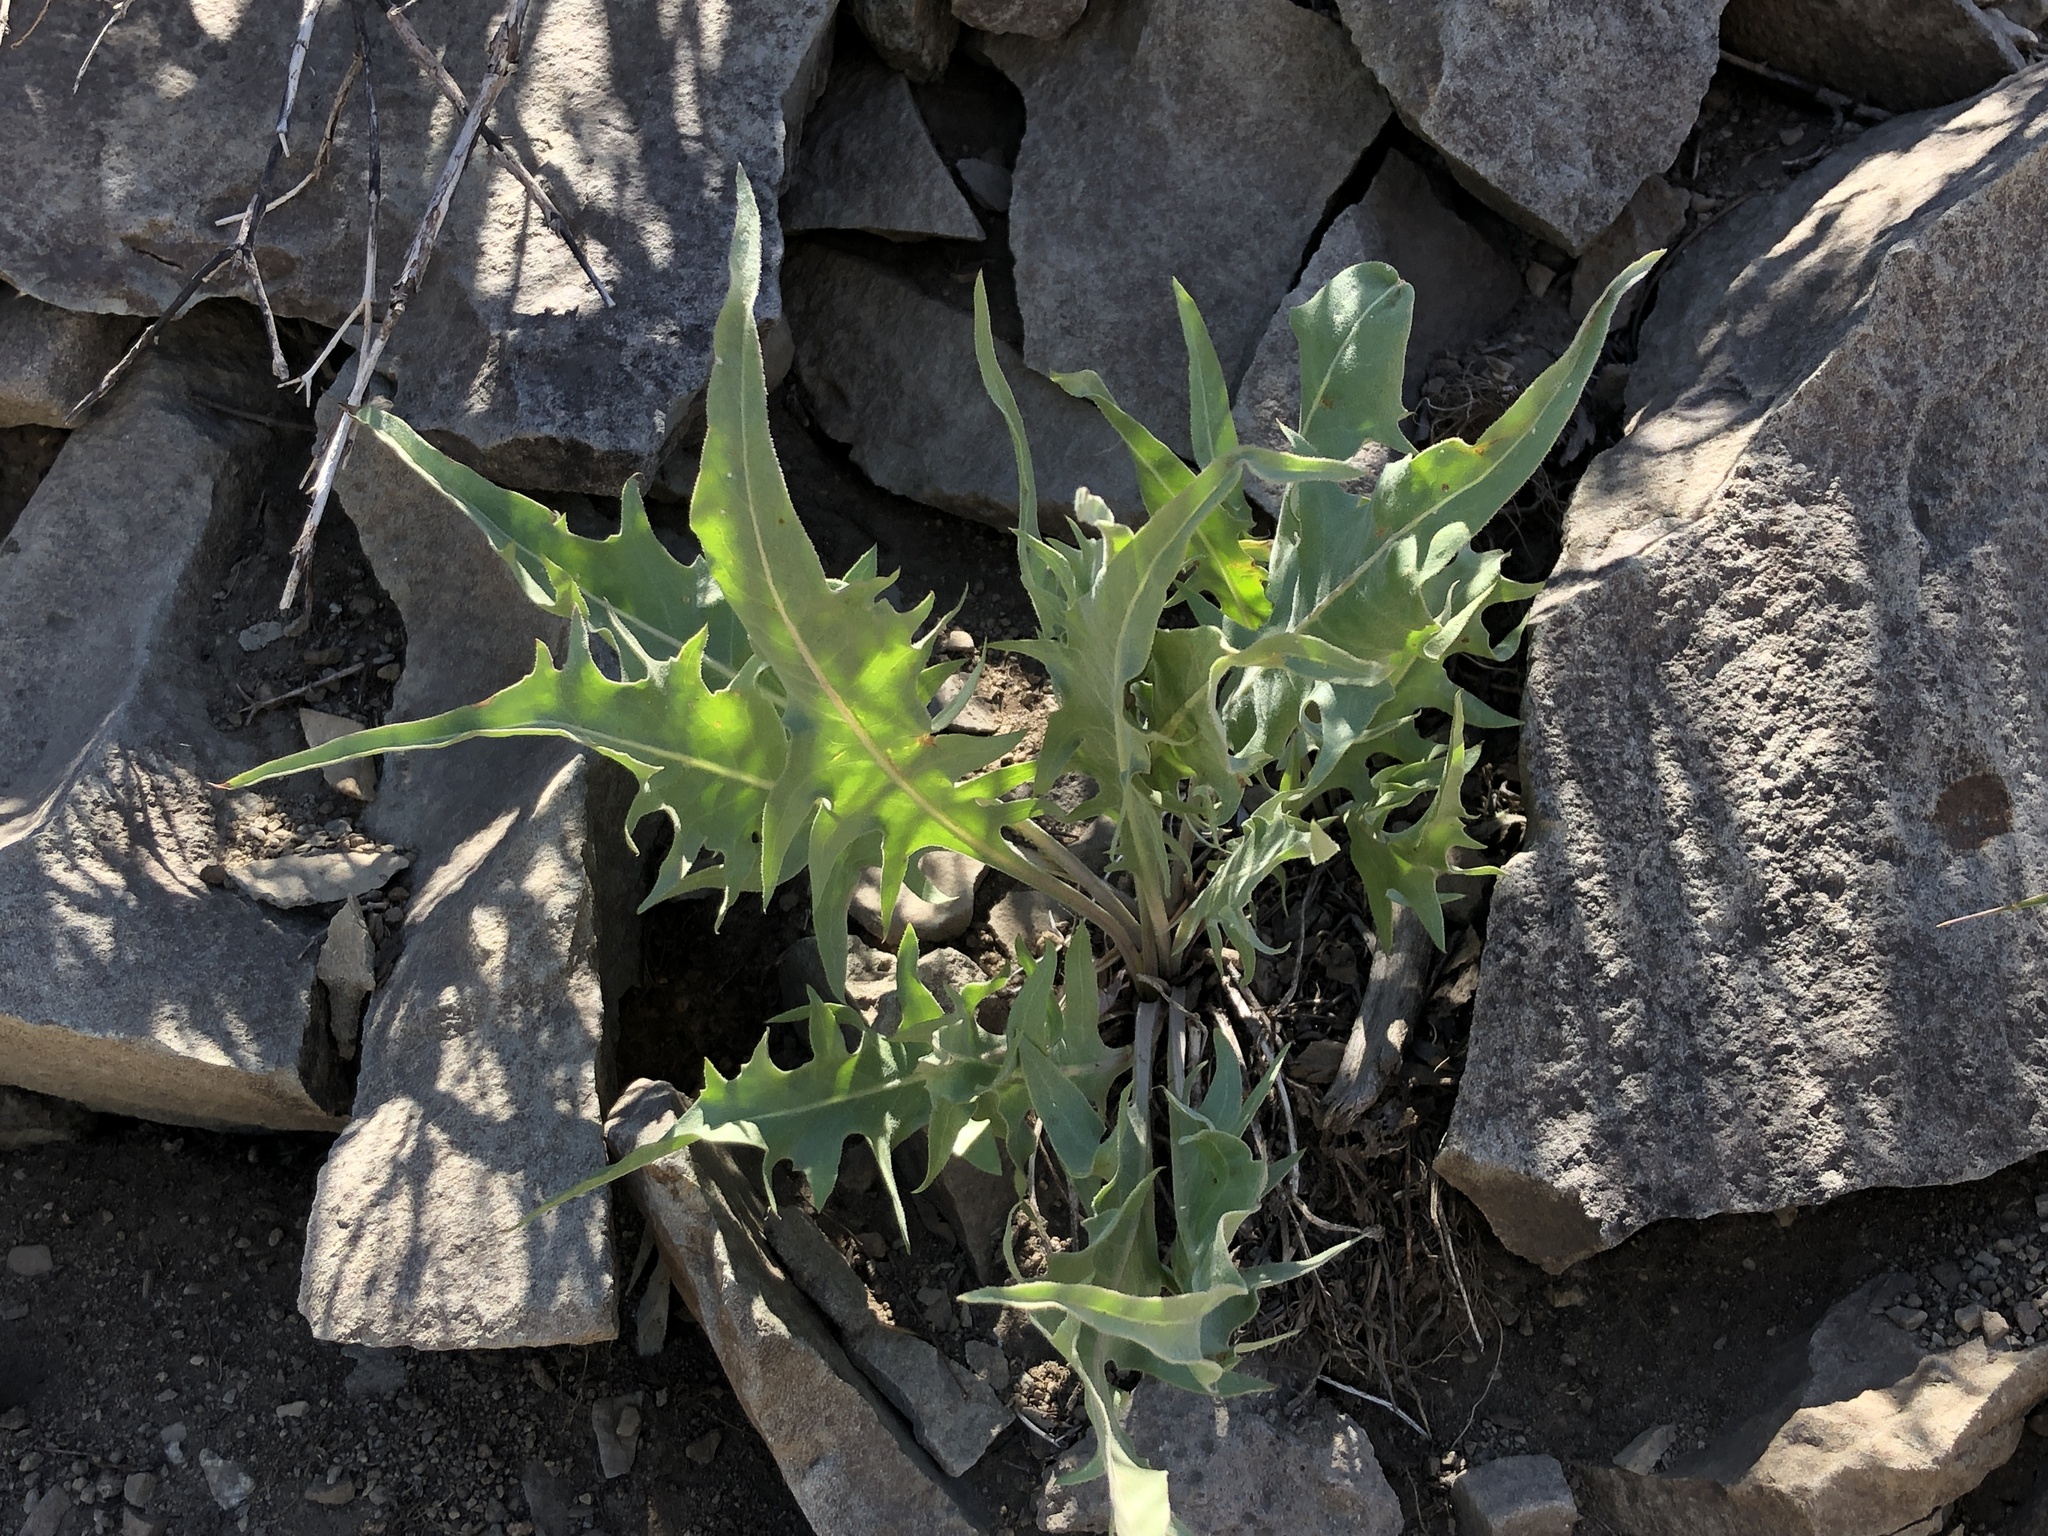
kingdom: Plantae
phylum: Tracheophyta
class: Magnoliopsida
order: Asterales
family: Asteraceae
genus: Crepis
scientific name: Crepis acuminata
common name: Longleaf hawk's-beard
